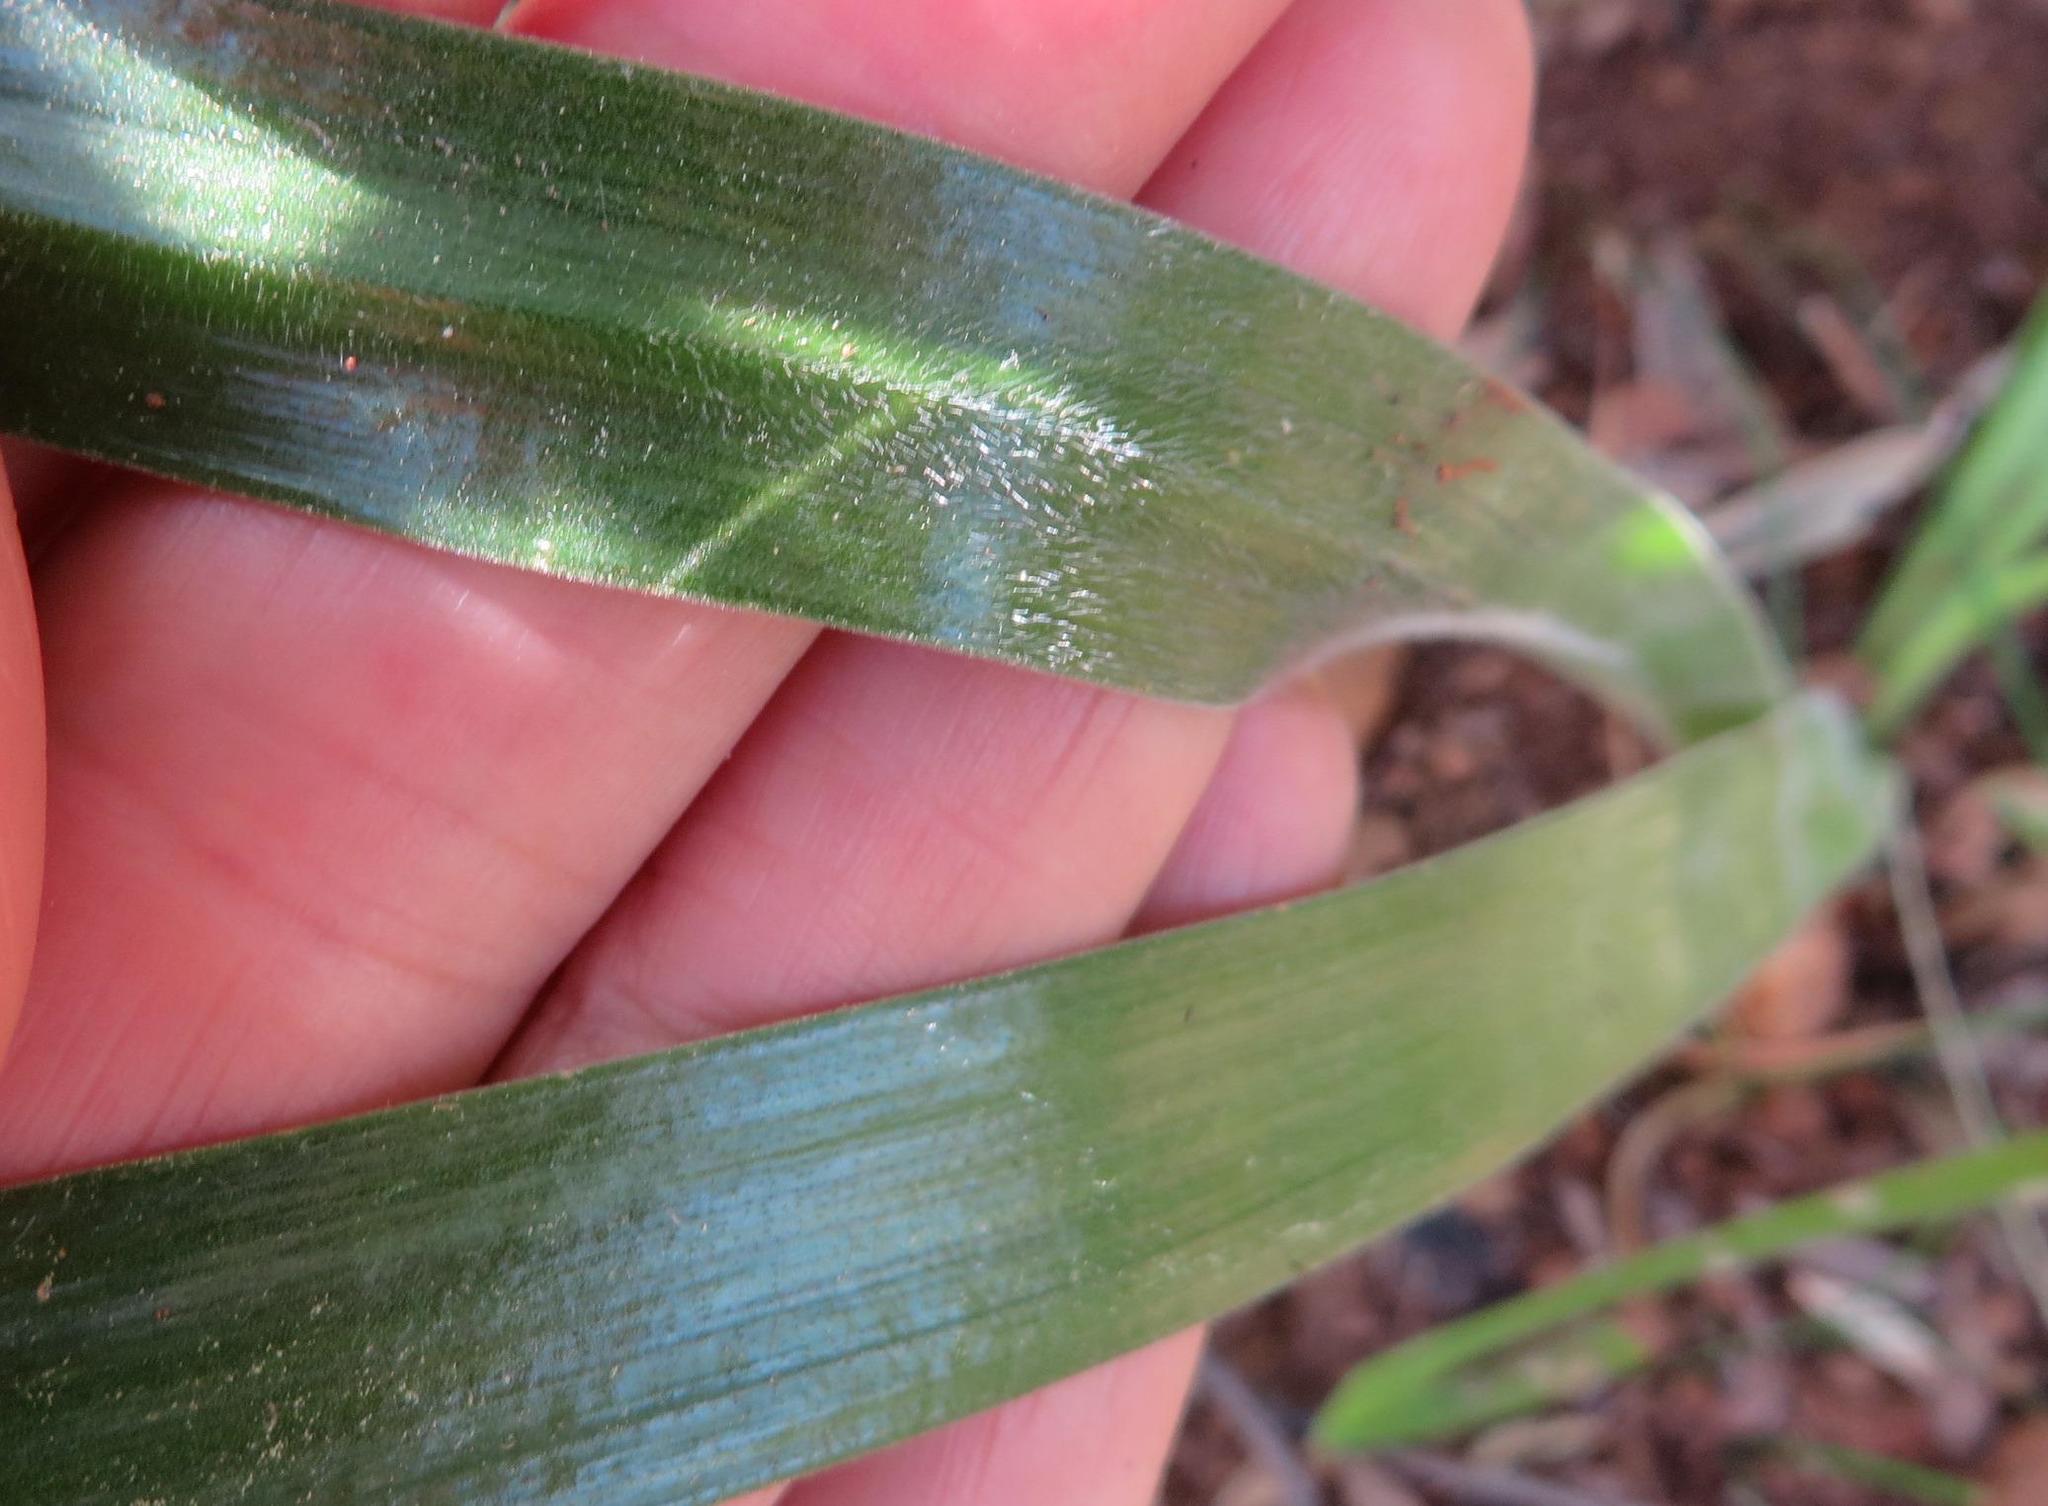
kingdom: Plantae
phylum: Tracheophyta
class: Liliopsida
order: Asparagales
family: Asphodelaceae
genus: Trachyandra
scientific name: Trachyandra hirsuta
